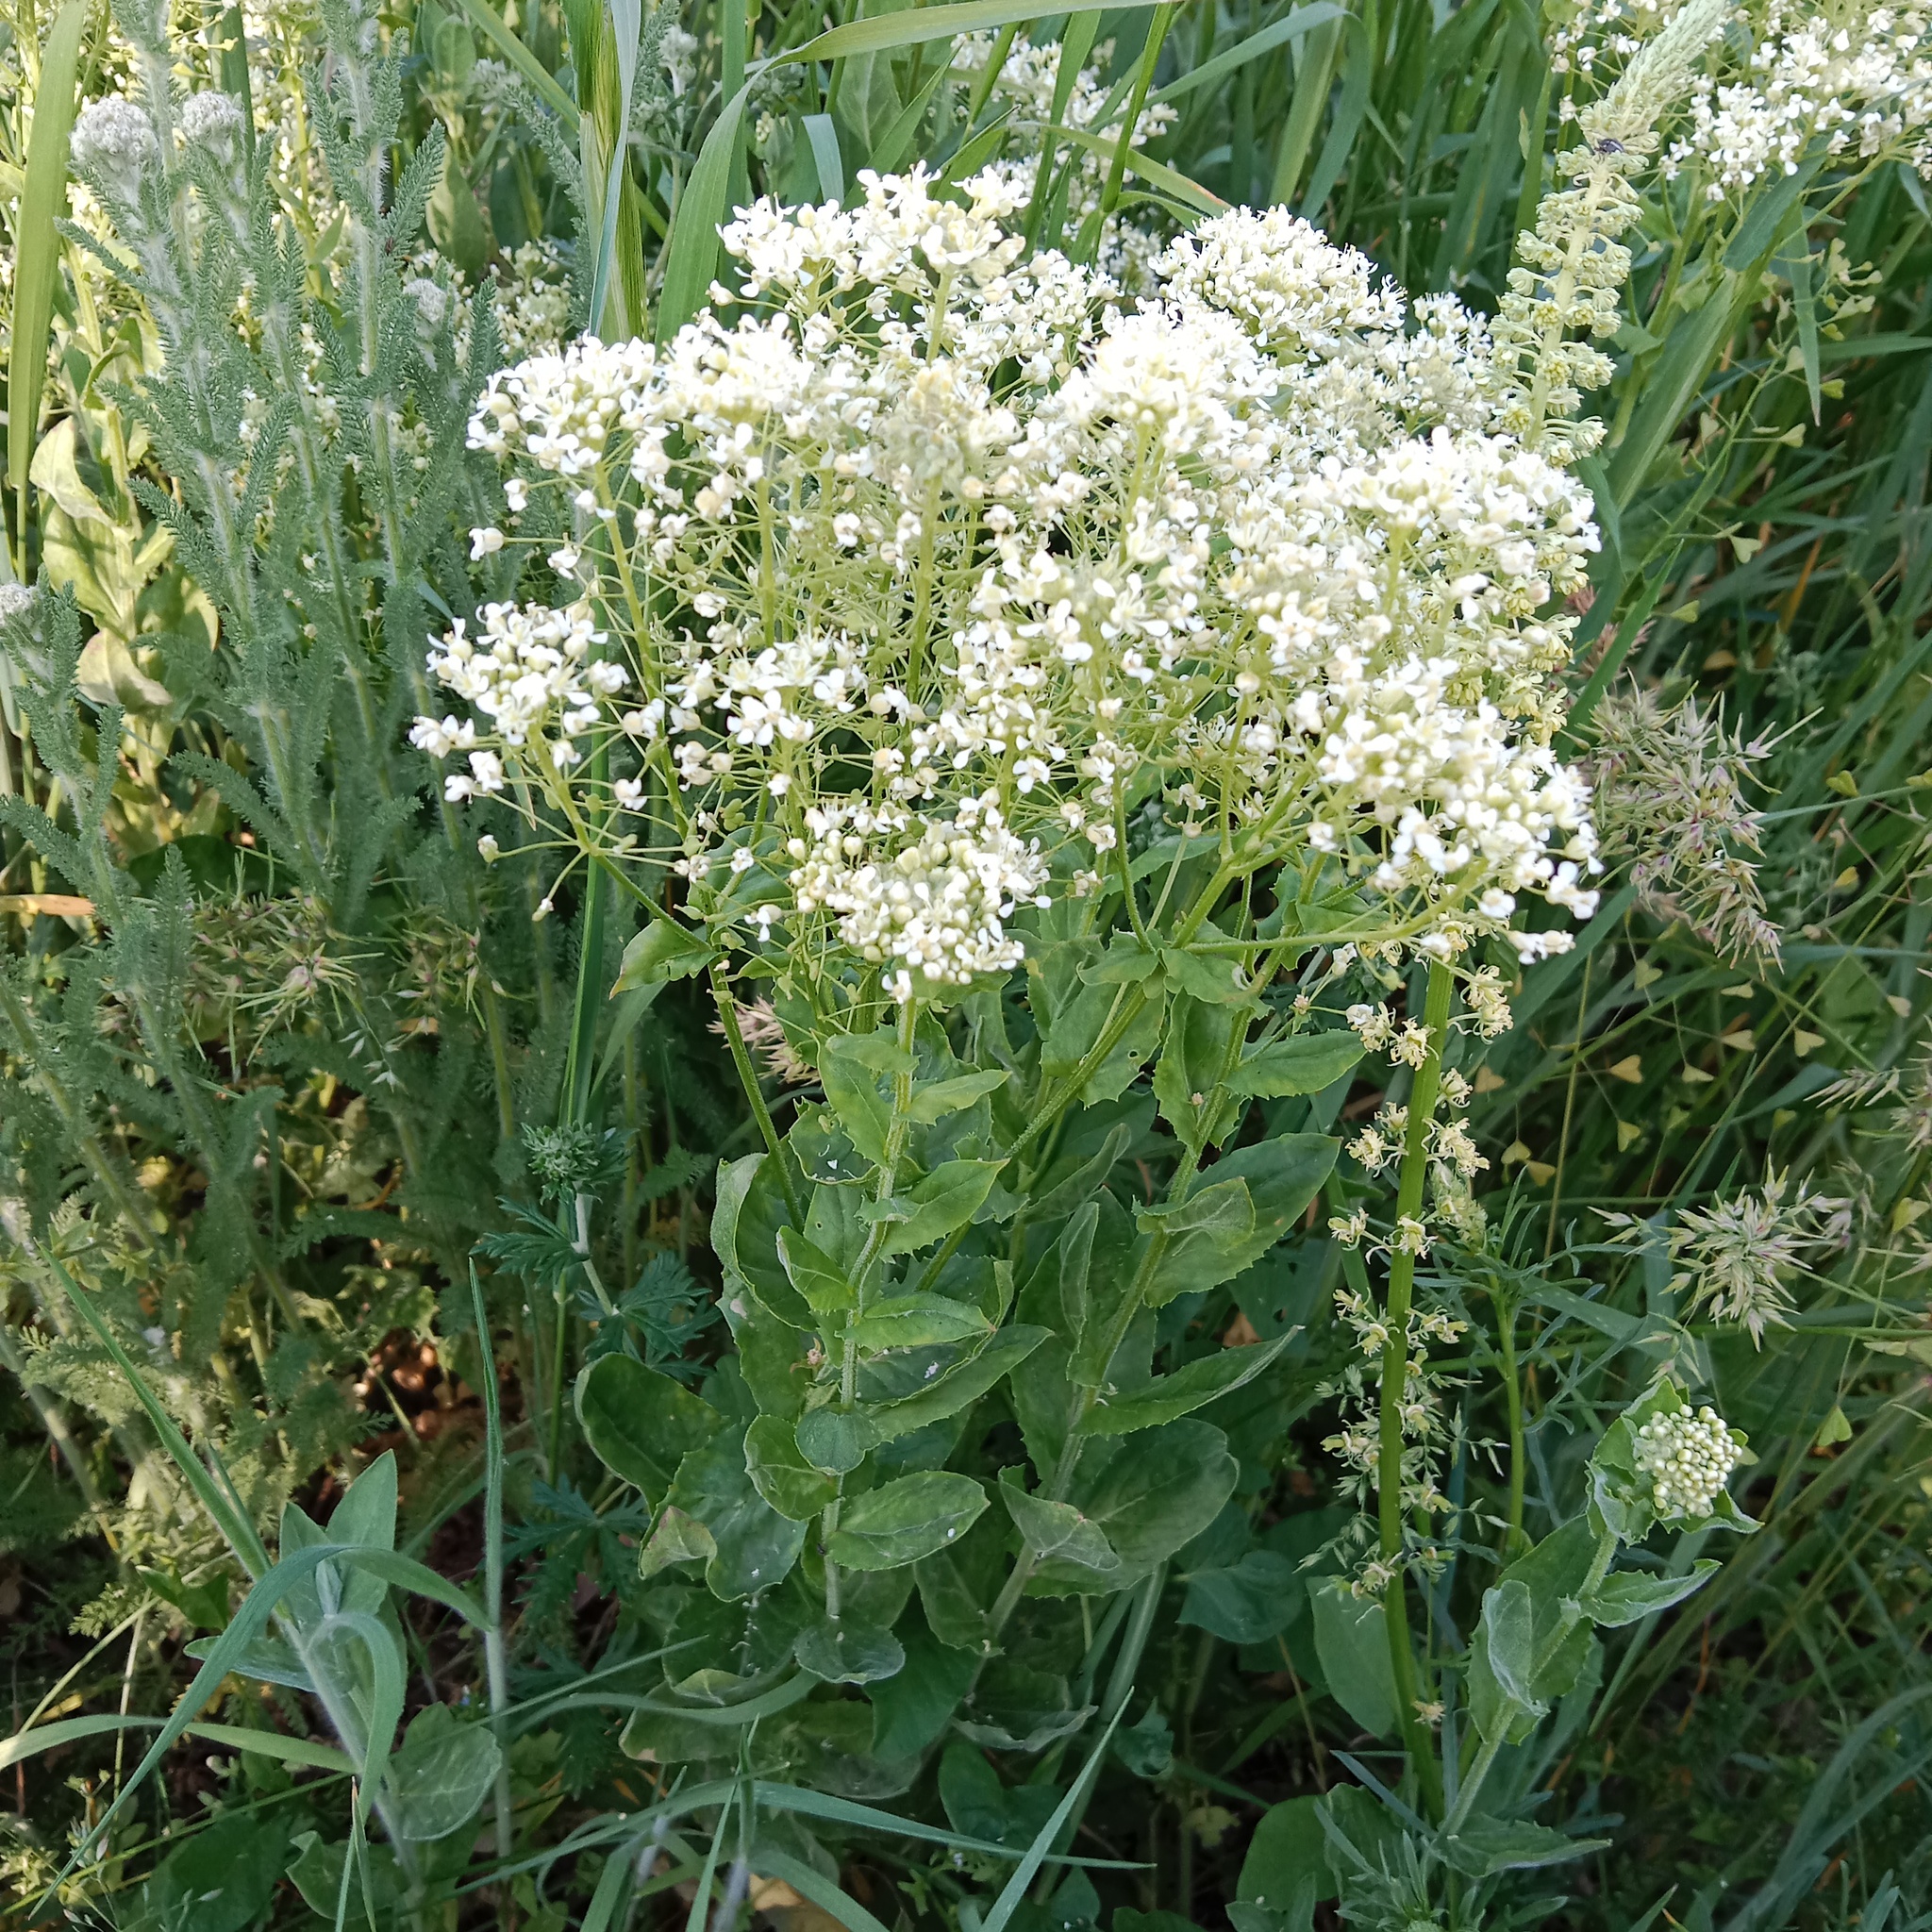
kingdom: Plantae
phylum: Tracheophyta
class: Magnoliopsida
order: Brassicales
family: Brassicaceae
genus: Lepidium
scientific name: Lepidium draba
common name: Hoary cress
